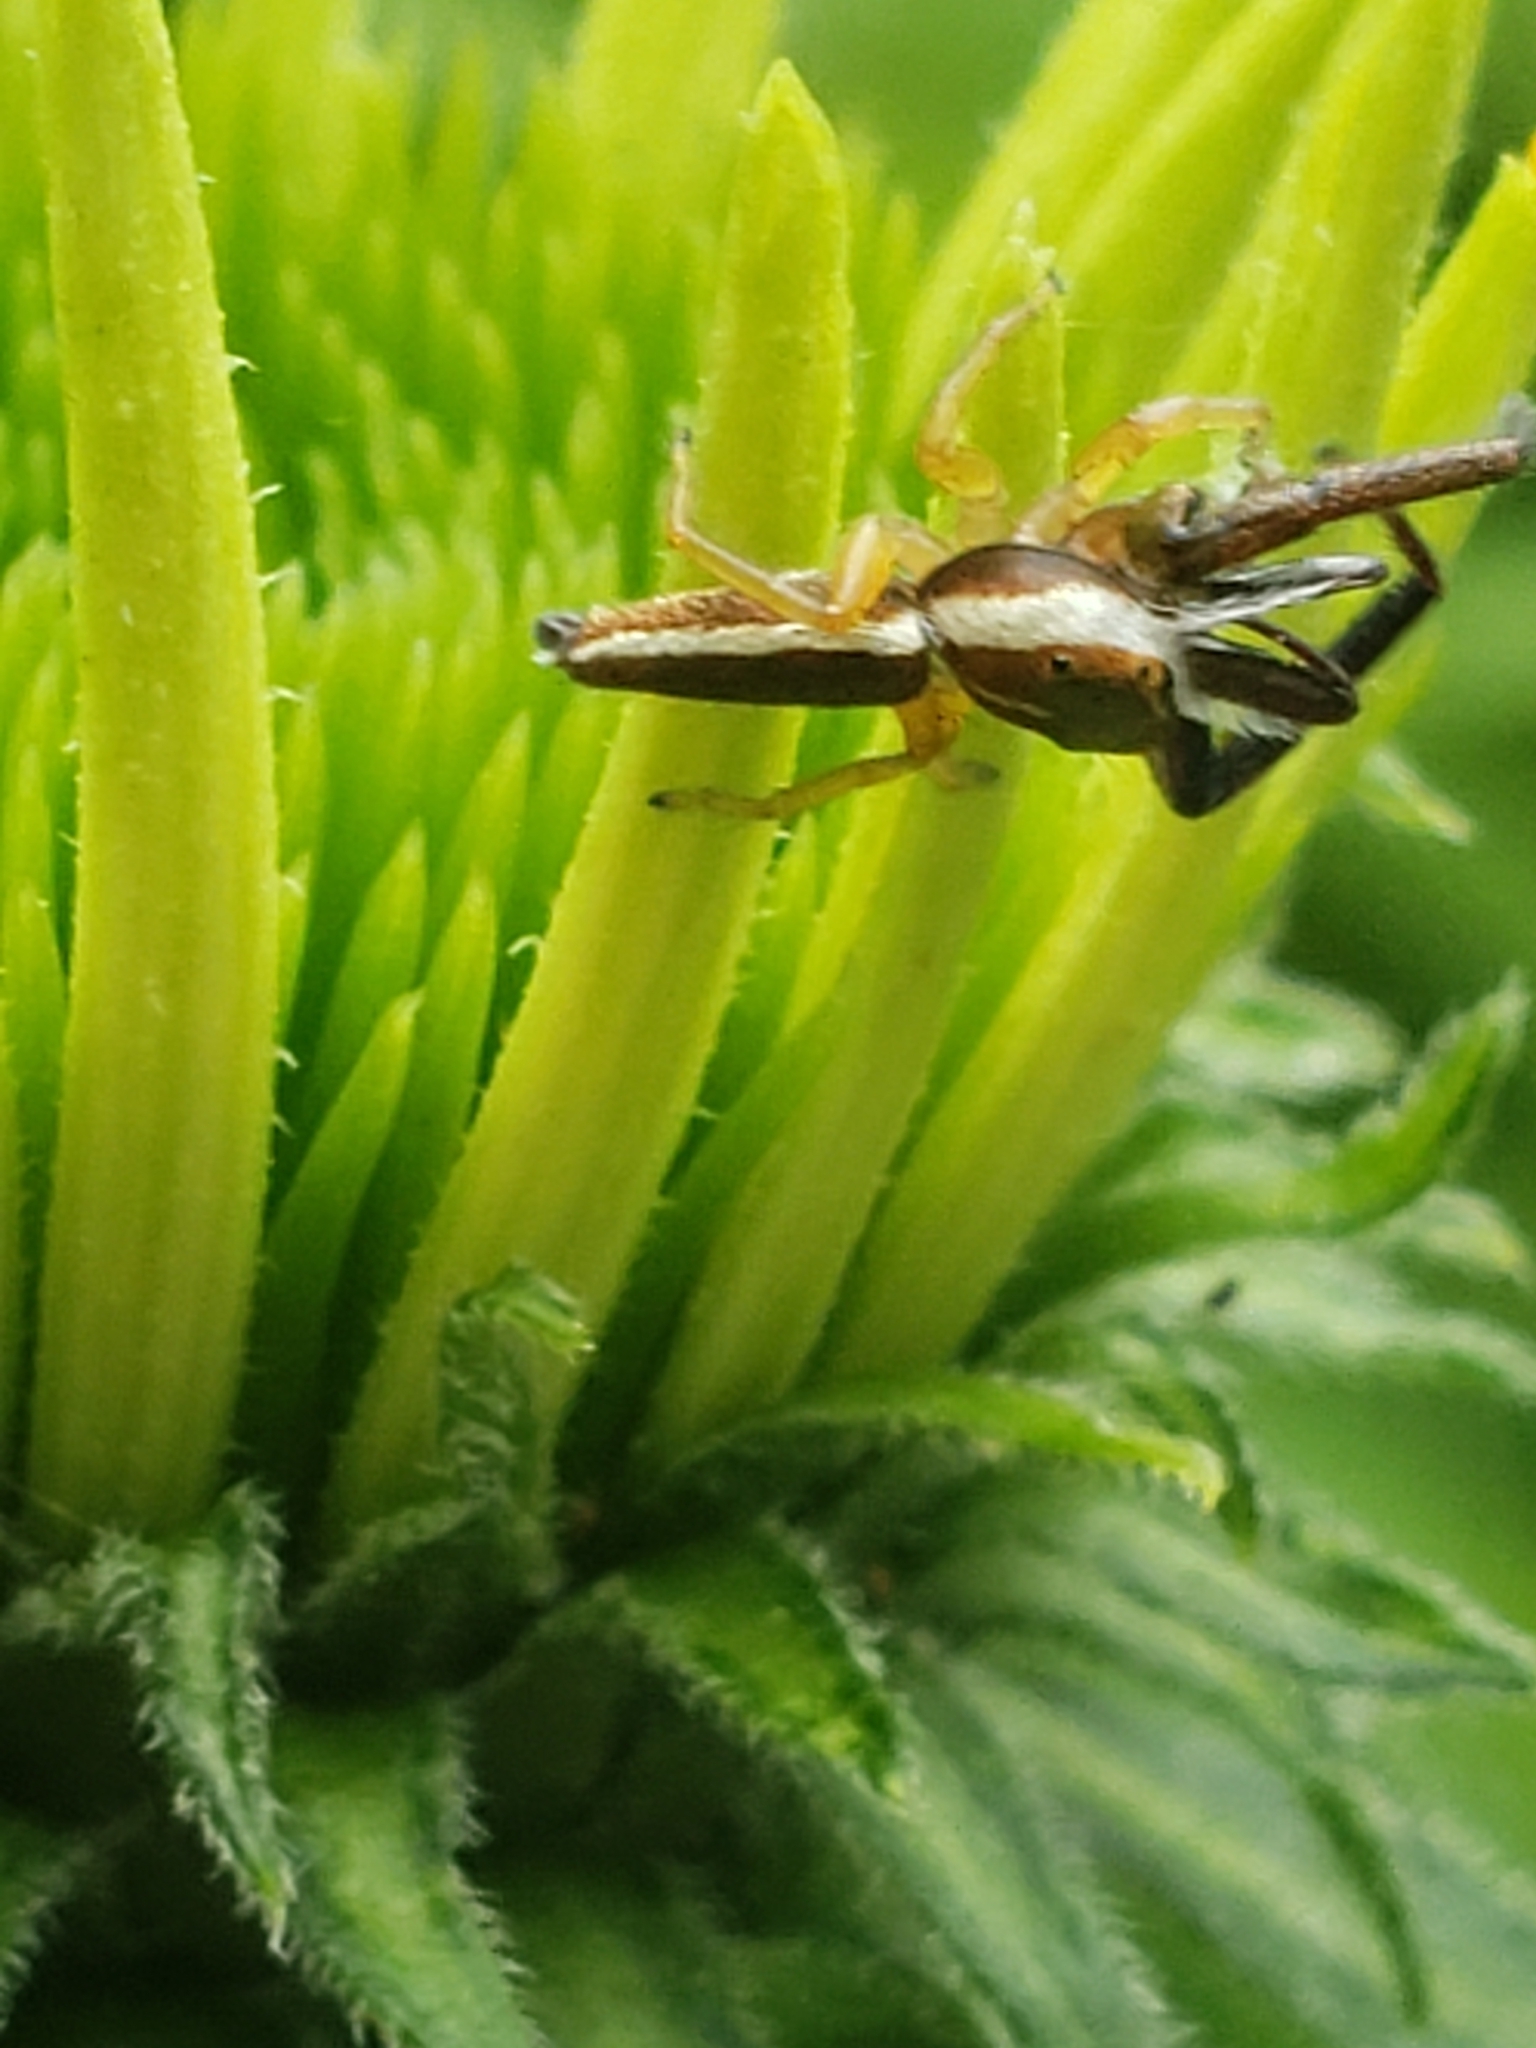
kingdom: Animalia
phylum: Arthropoda
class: Arachnida
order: Araneae
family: Salticidae
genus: Hentzia
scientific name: Hentzia palmarum
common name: Common hentz jumping spider
